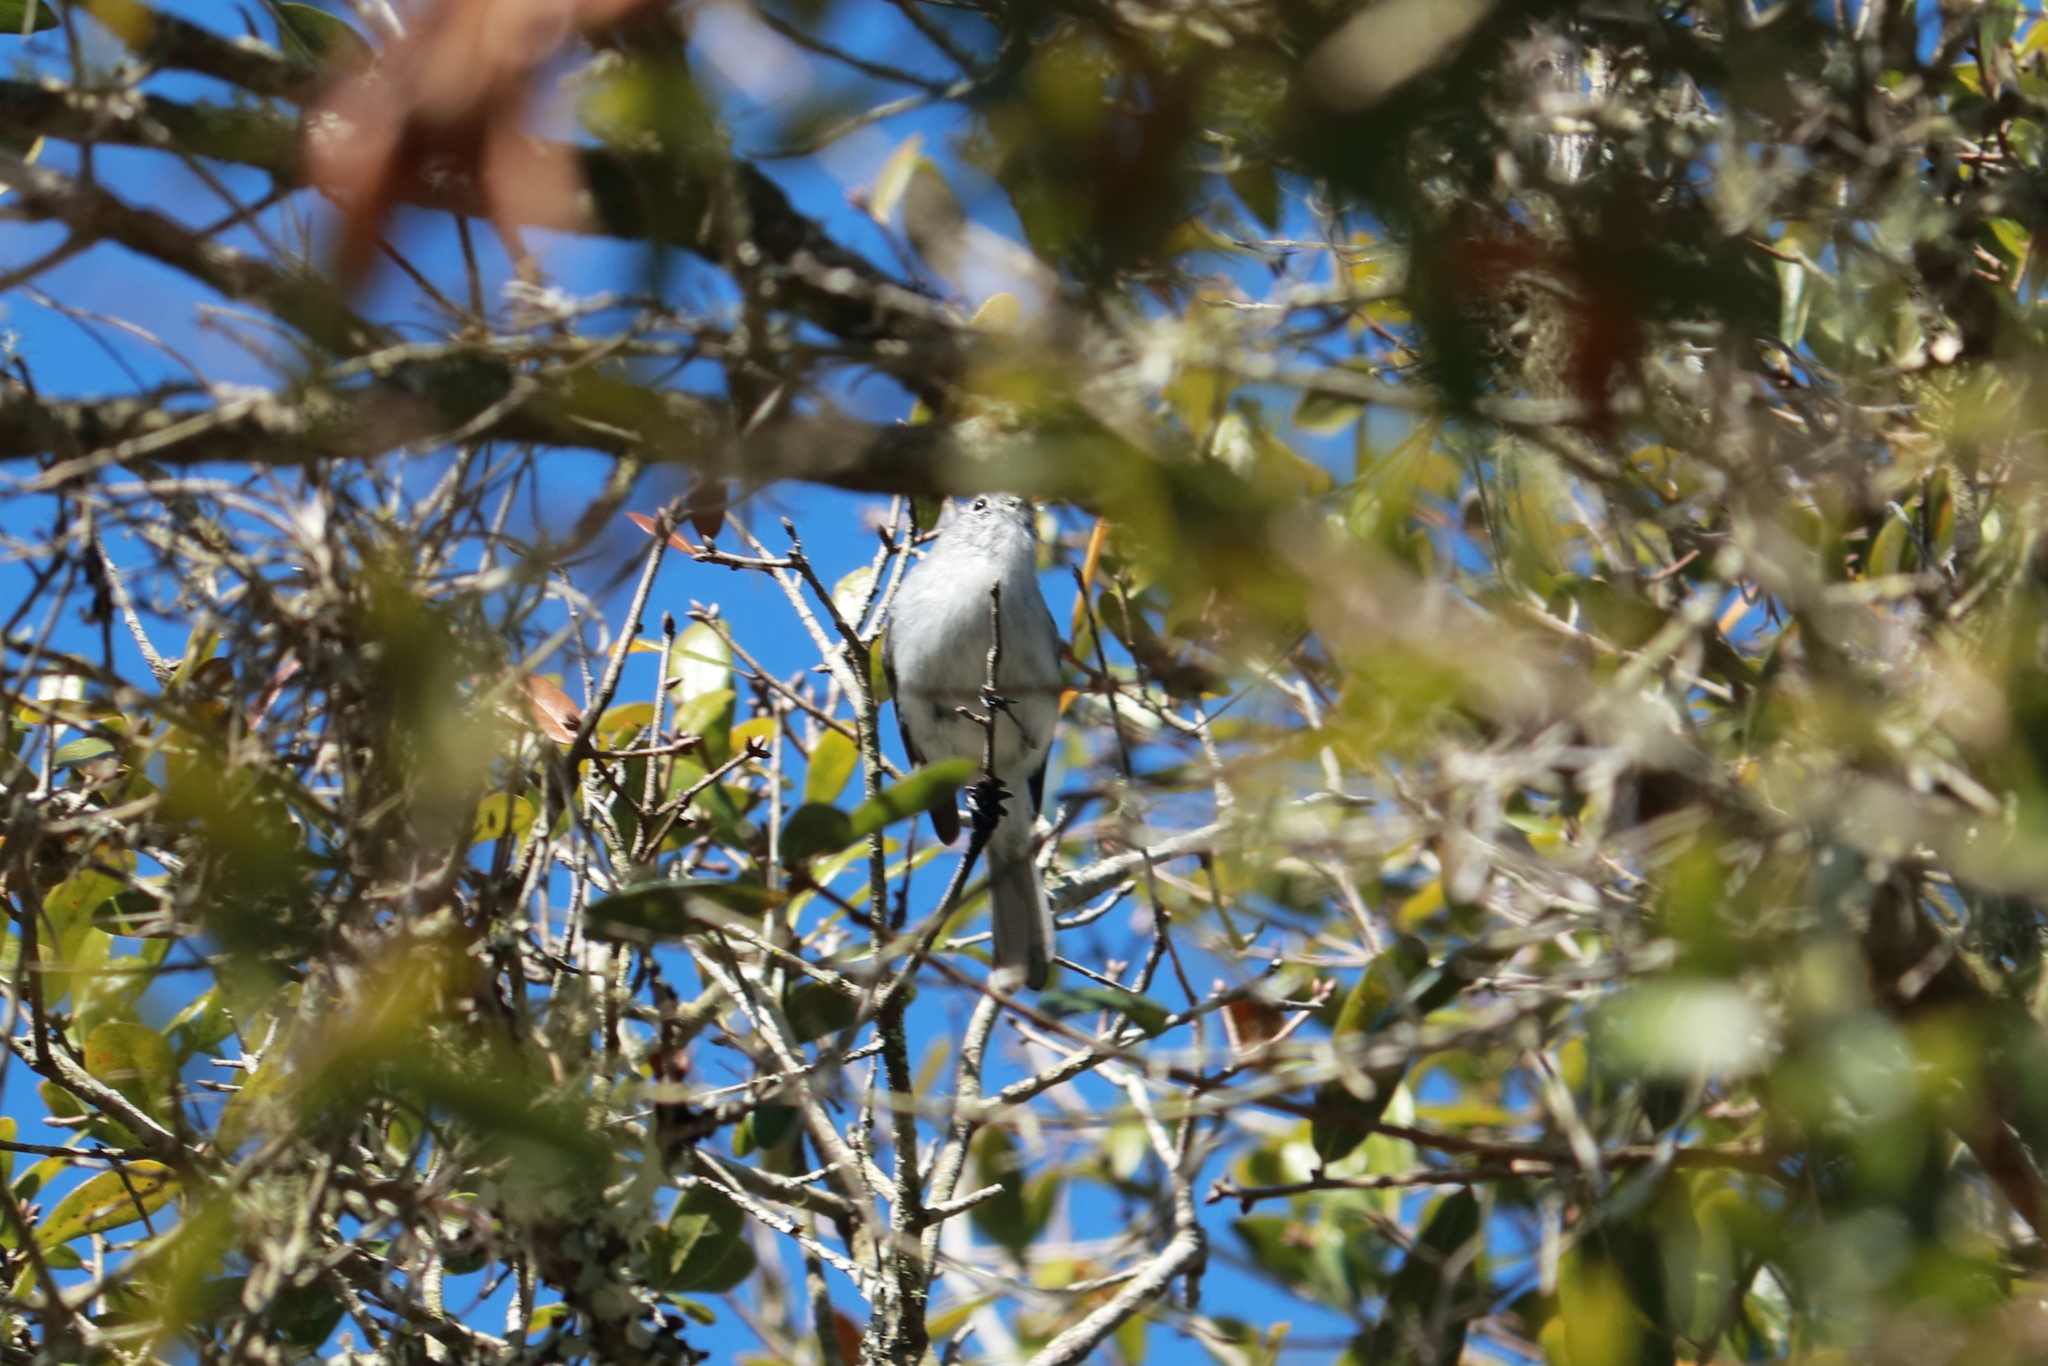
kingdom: Animalia
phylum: Chordata
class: Aves
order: Passeriformes
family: Polioptilidae
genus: Polioptila
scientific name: Polioptila caerulea
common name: Blue-gray gnatcatcher
